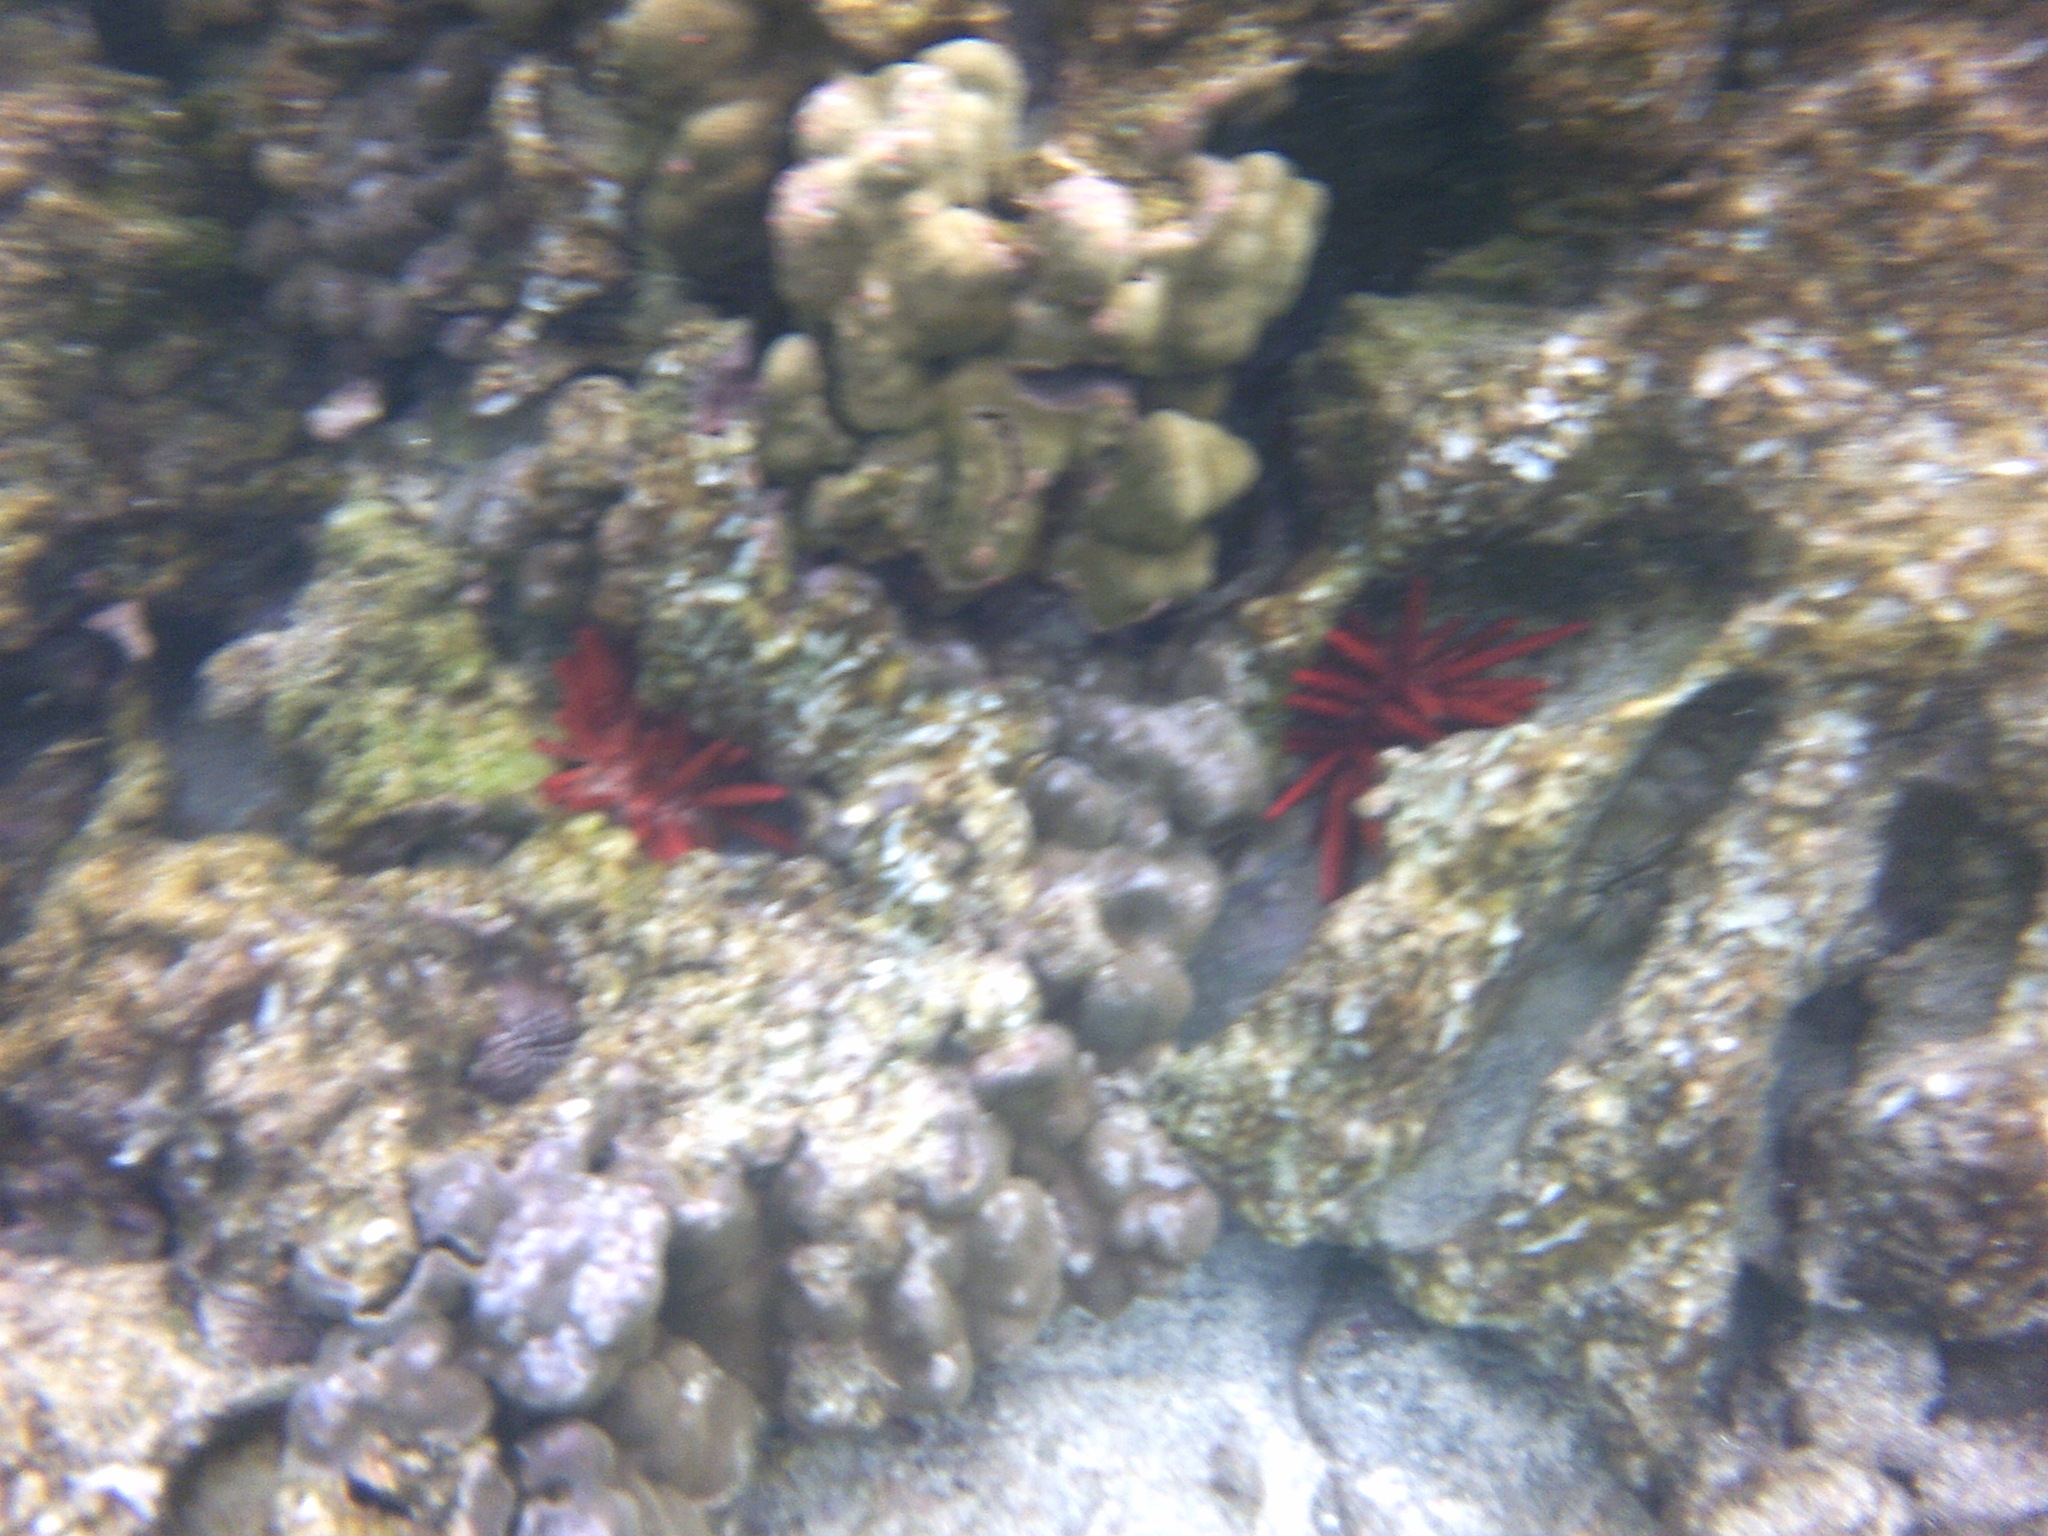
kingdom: Animalia
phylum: Echinodermata
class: Echinoidea
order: Camarodonta
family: Echinometridae
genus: Heterocentrotus
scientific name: Heterocentrotus mamillatus
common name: Slate pencil urchin
